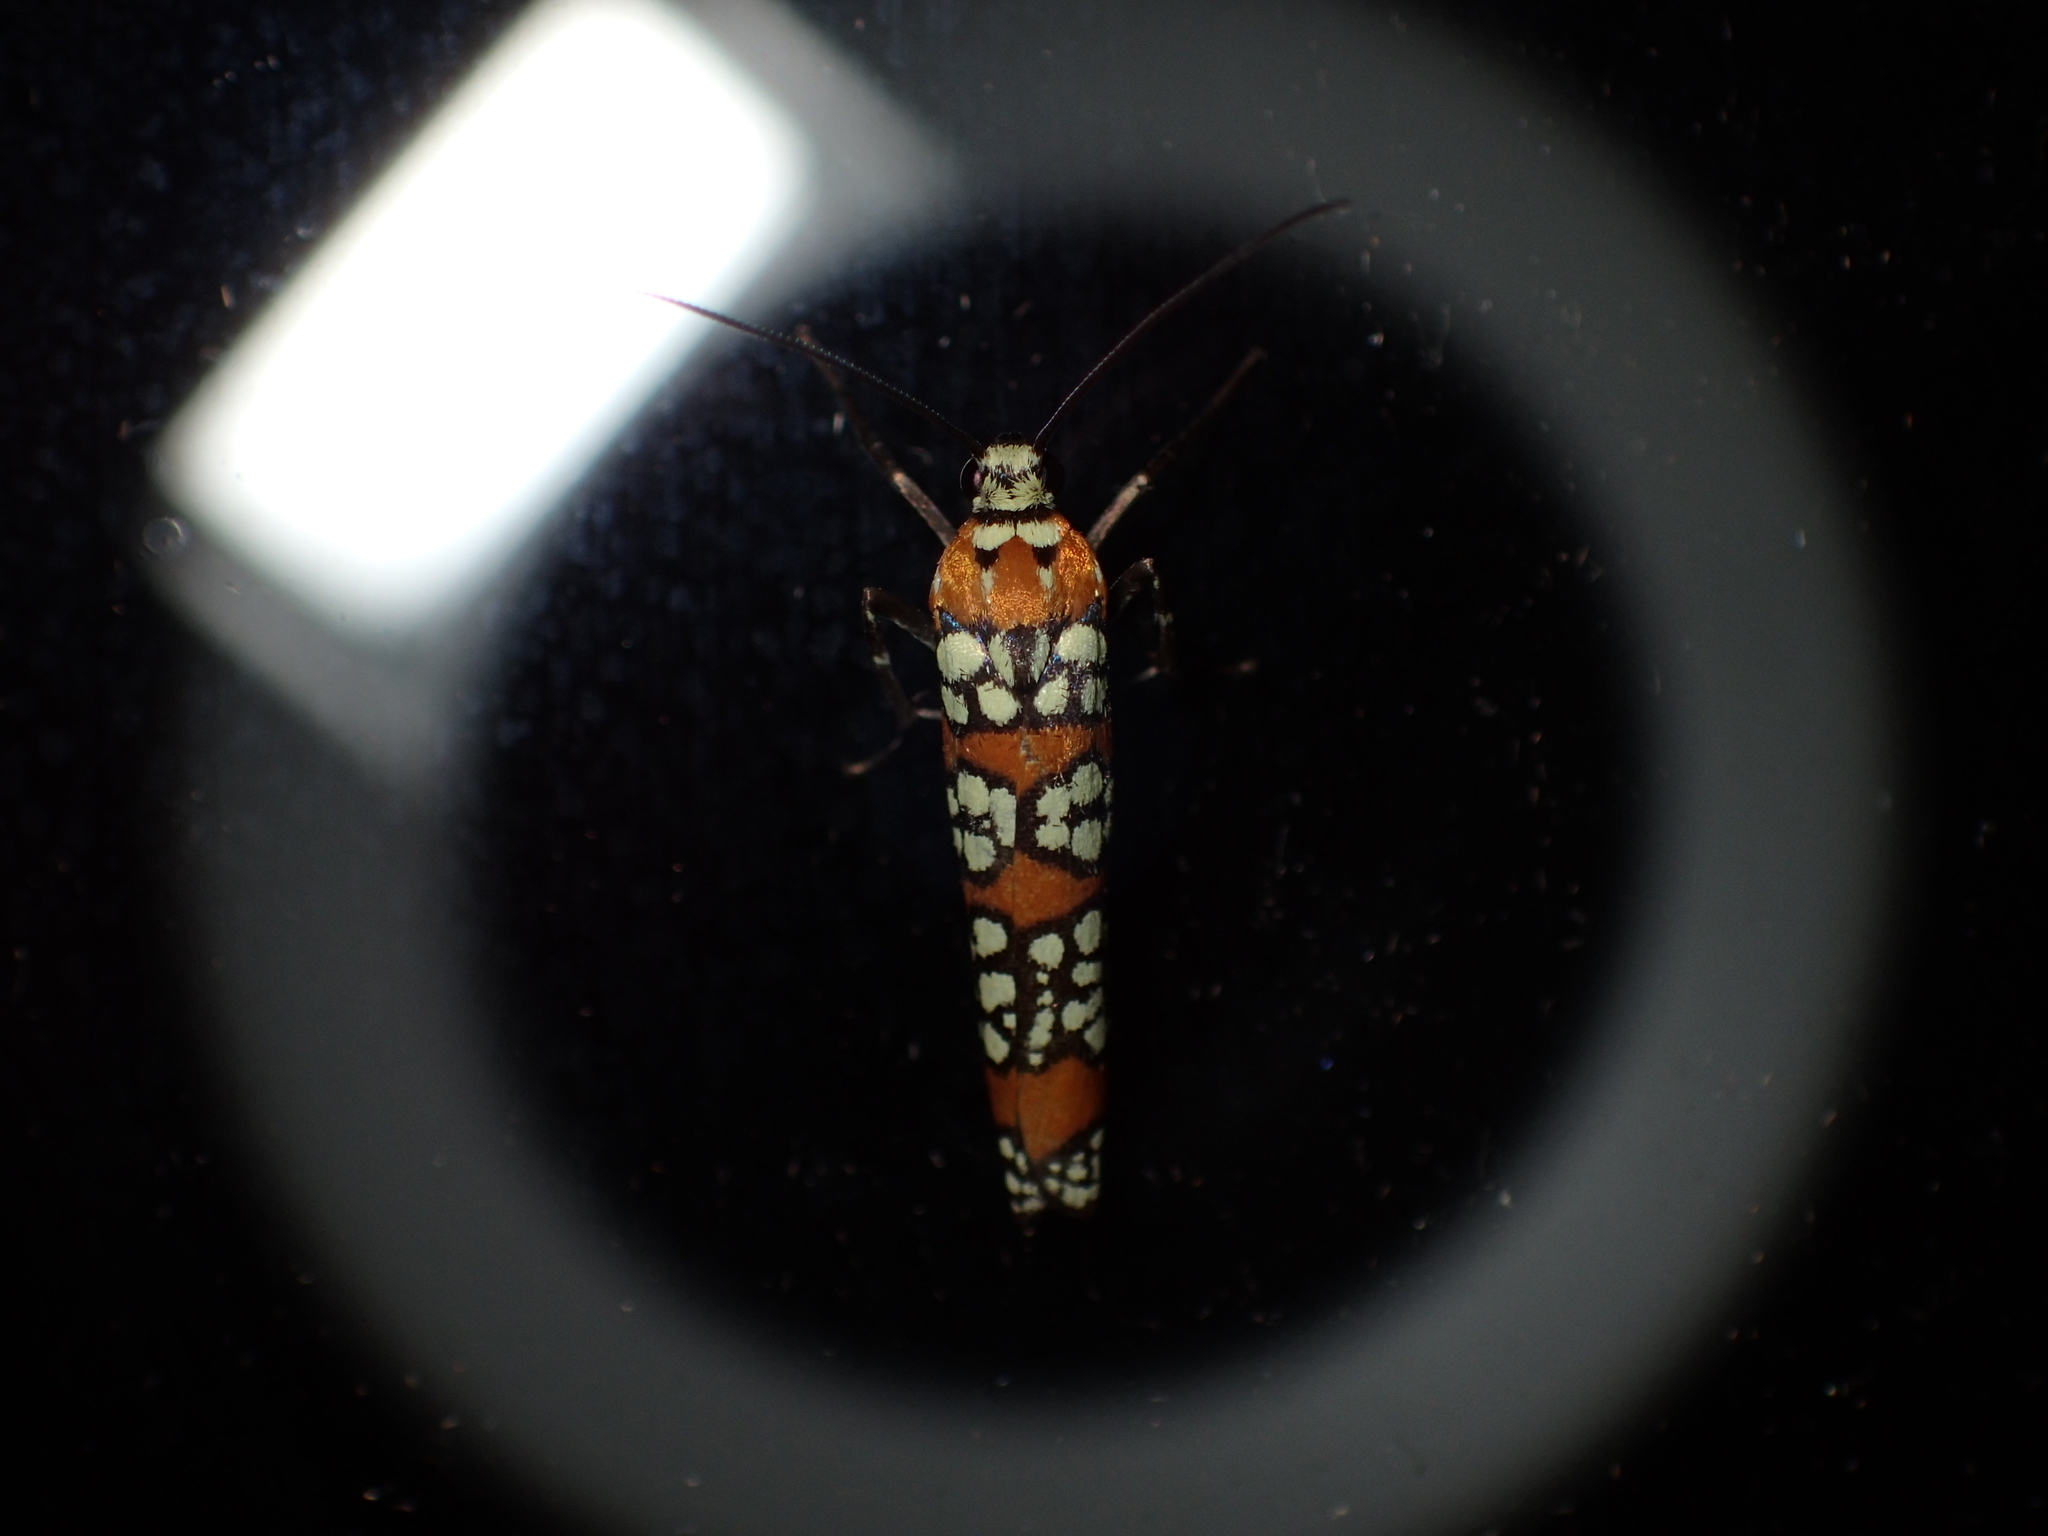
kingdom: Animalia
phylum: Arthropoda
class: Insecta
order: Lepidoptera
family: Attevidae
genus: Atteva
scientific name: Atteva punctella
